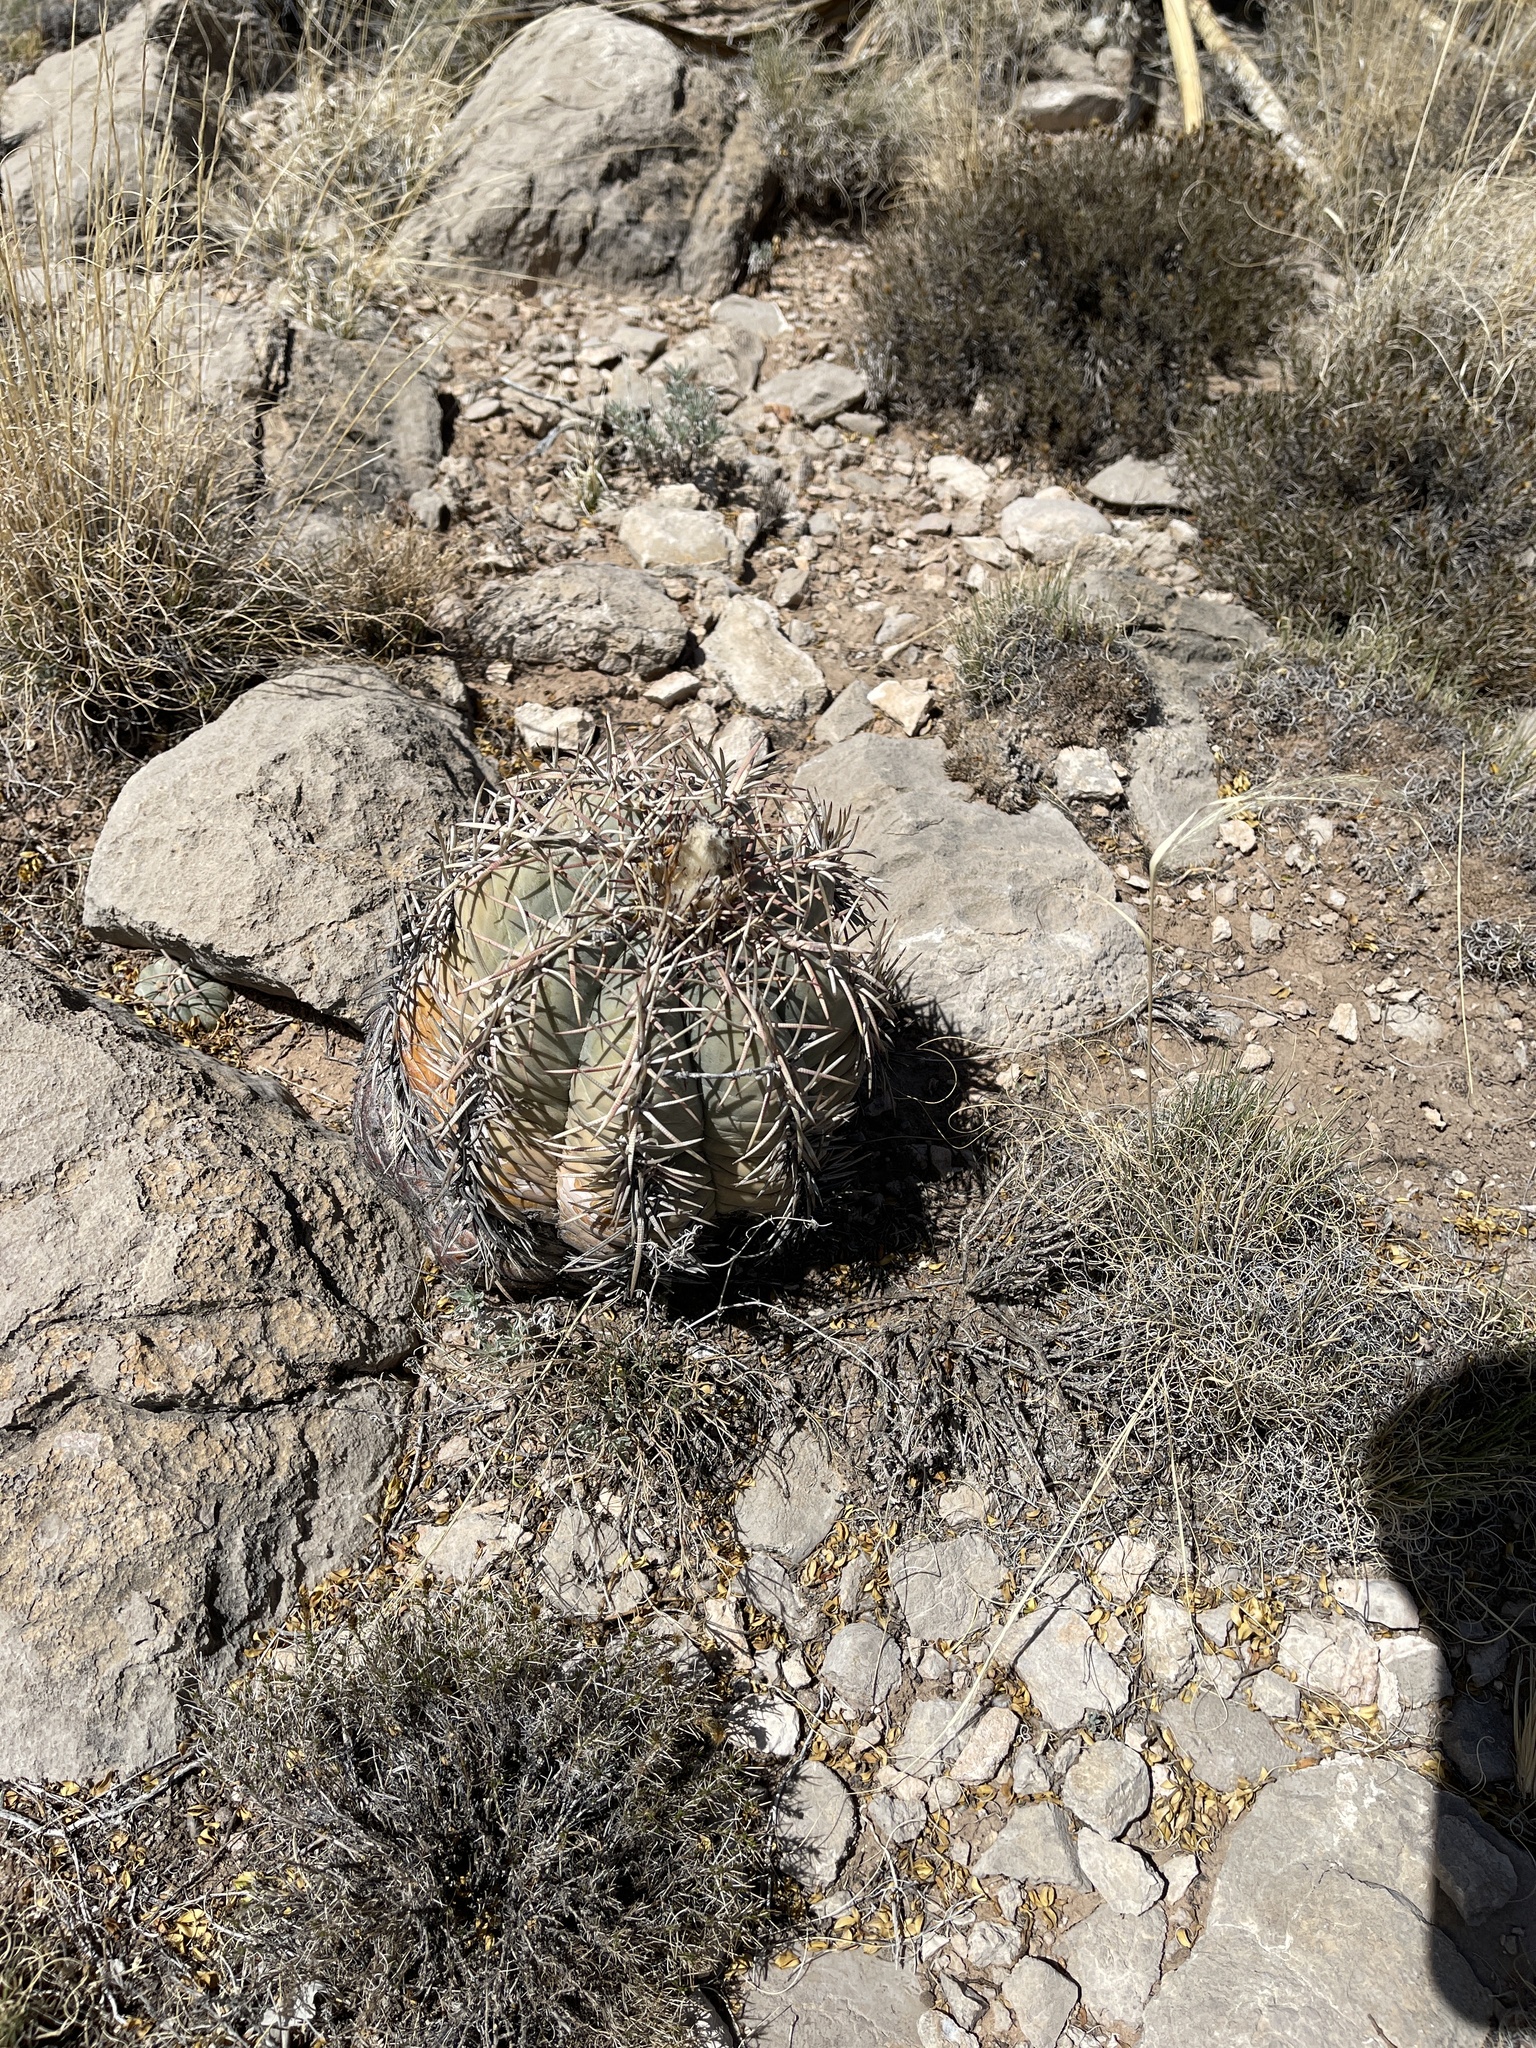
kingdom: Plantae
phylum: Tracheophyta
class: Magnoliopsida
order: Caryophyllales
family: Cactaceae
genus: Echinocactus
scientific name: Echinocactus horizonthalonius
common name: Devilshead
